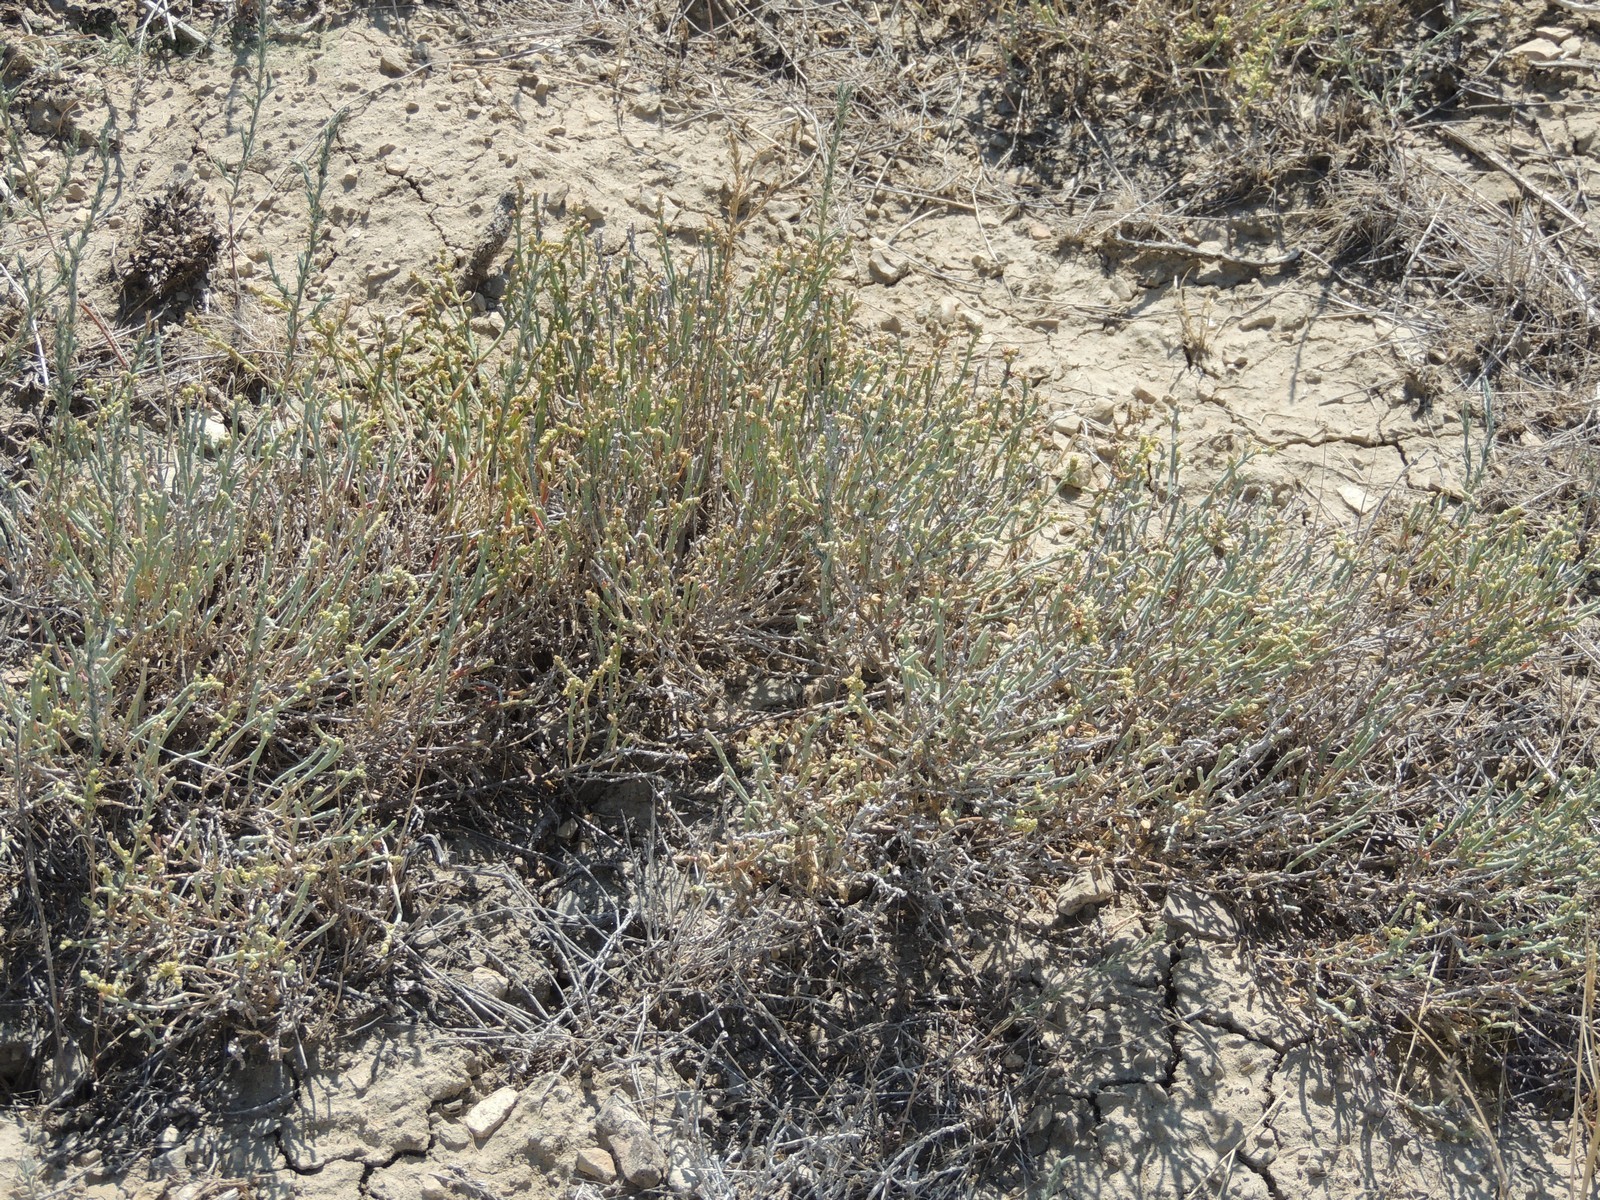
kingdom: Plantae
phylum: Tracheophyta
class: Magnoliopsida
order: Caryophyllales
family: Amaranthaceae
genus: Anabasis
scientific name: Anabasis salsa
